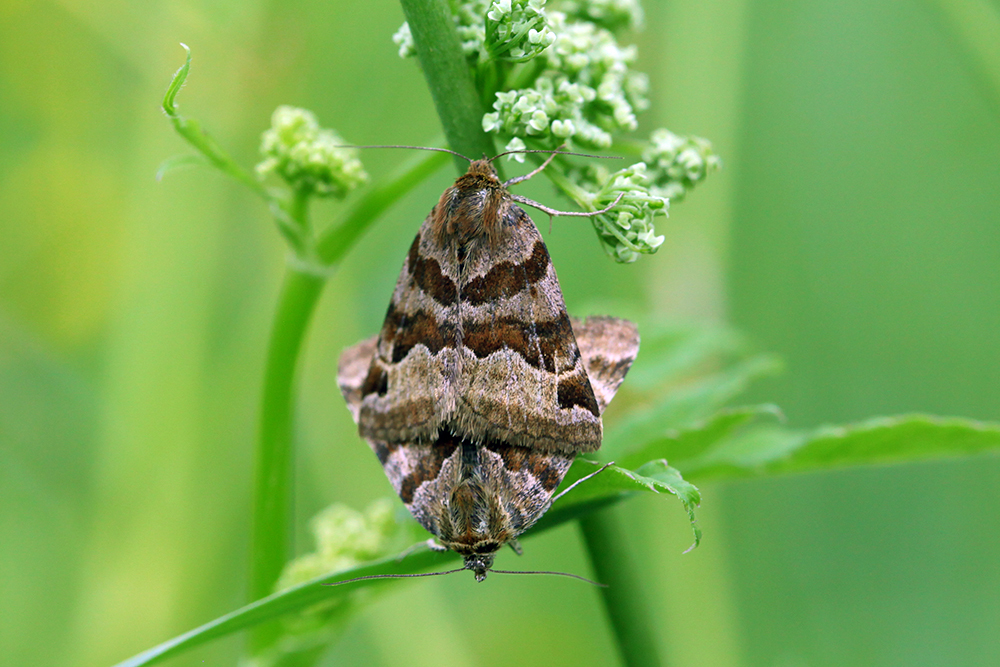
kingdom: Animalia
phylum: Arthropoda
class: Insecta
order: Lepidoptera
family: Erebidae
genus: Euclidia
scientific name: Euclidia glyphica
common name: Burnet companion
